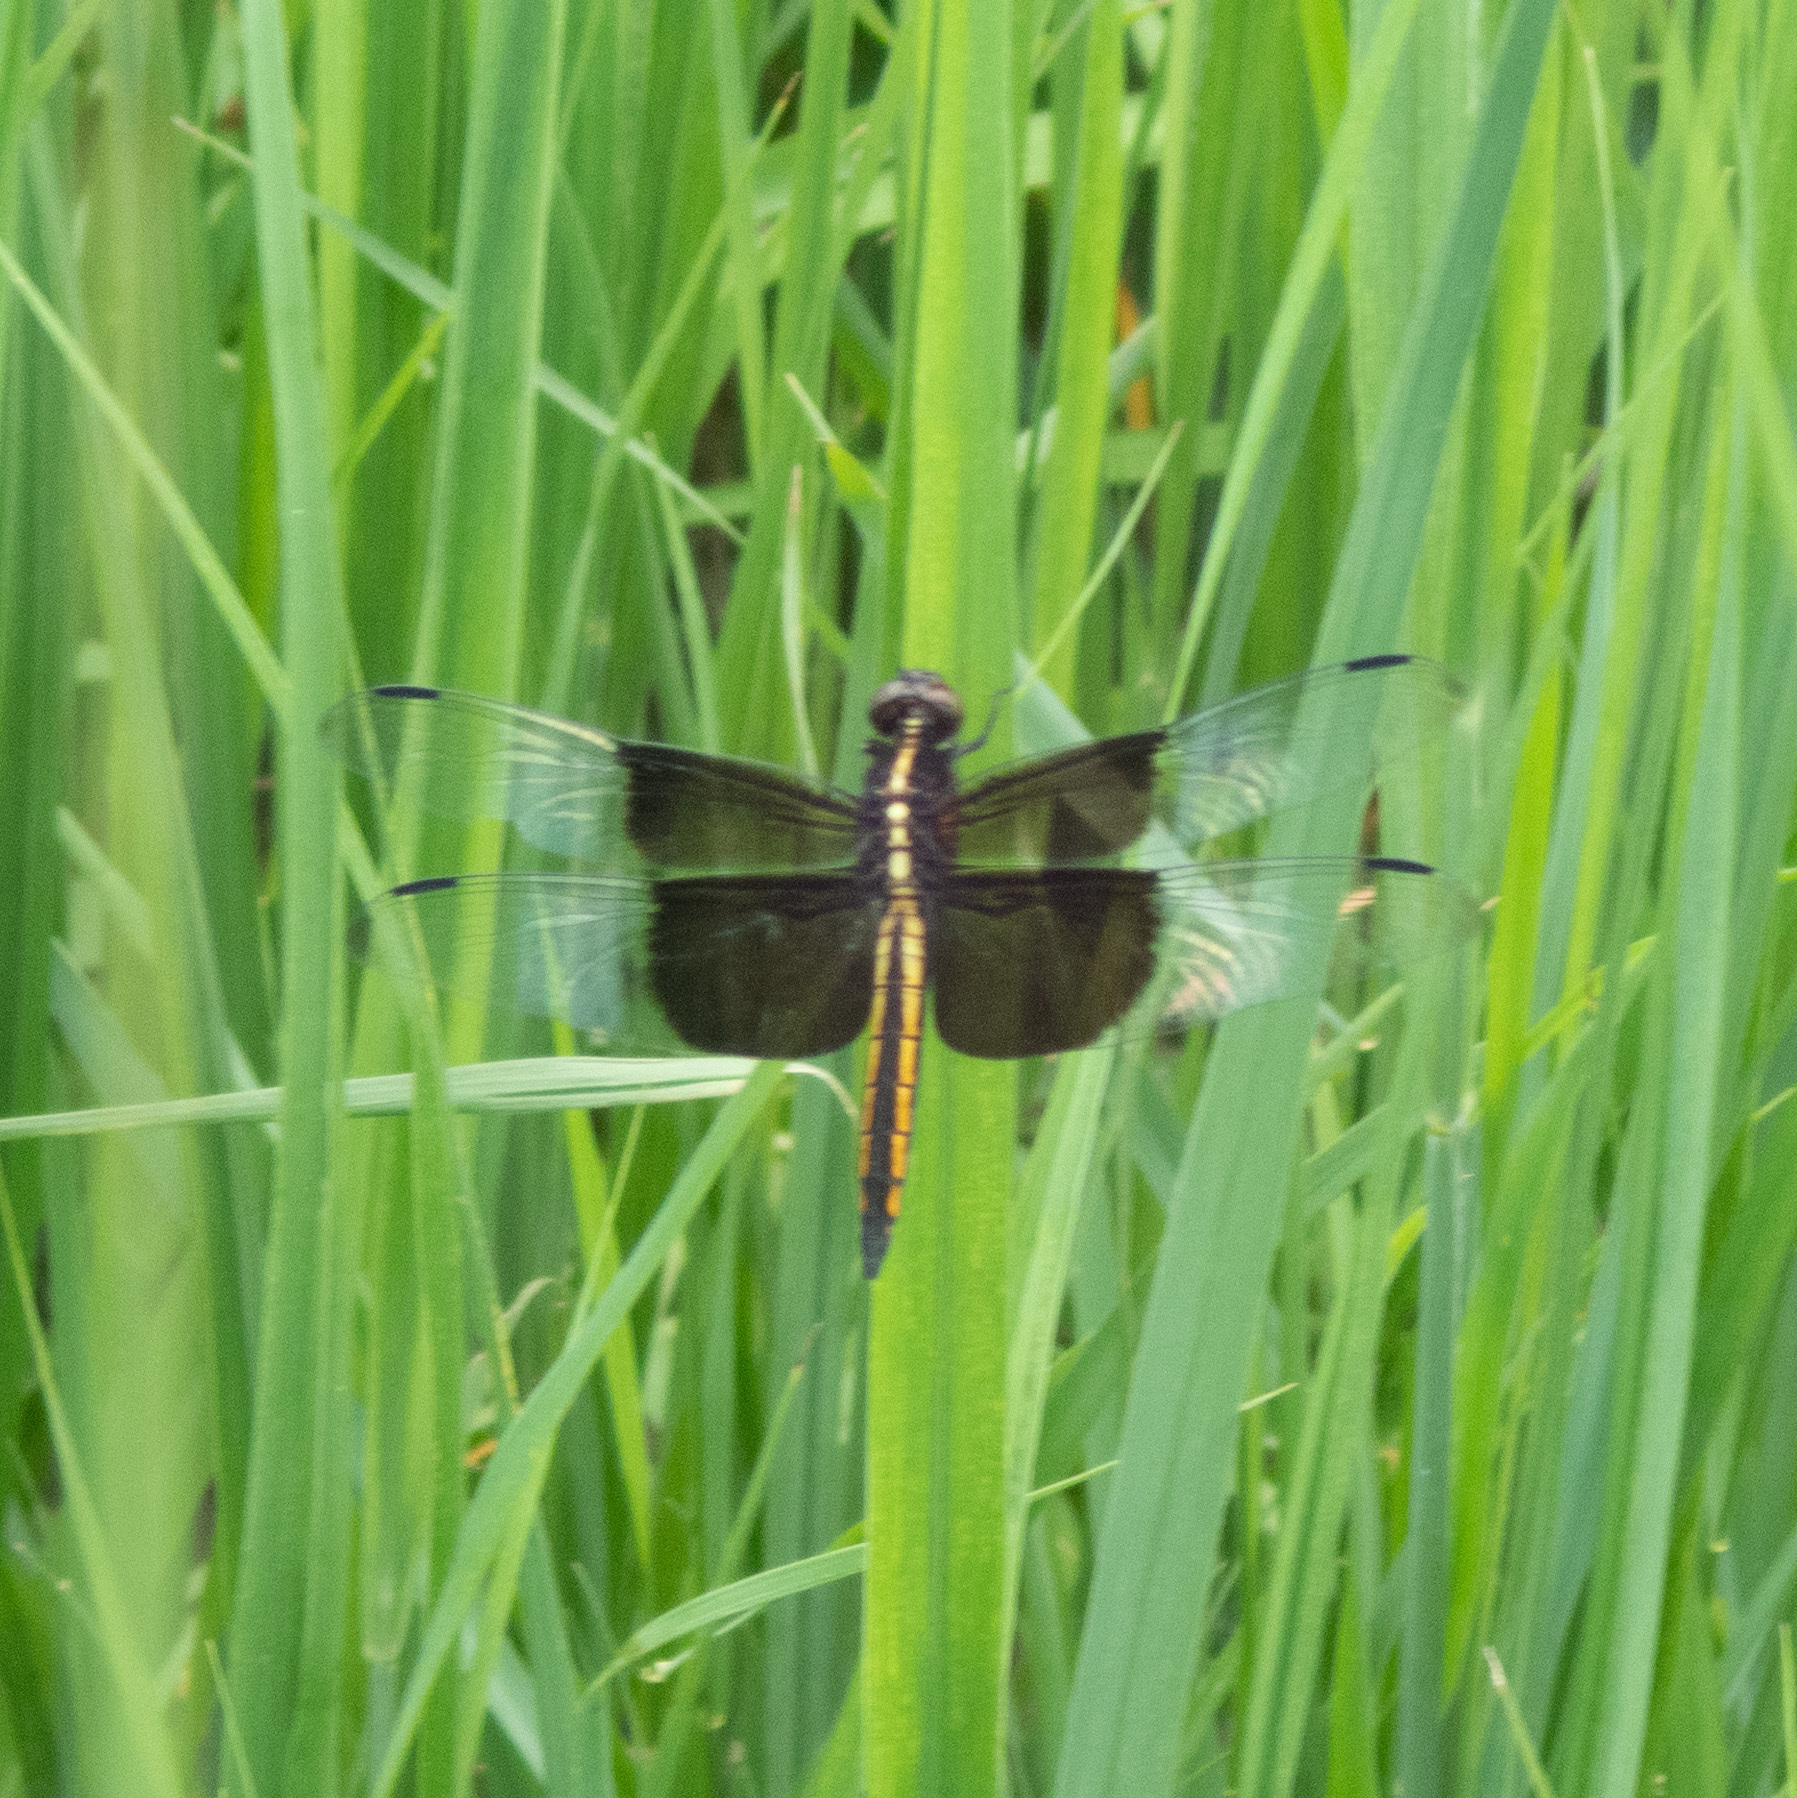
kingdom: Animalia
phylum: Arthropoda
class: Insecta
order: Odonata
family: Libellulidae
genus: Libellula
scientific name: Libellula luctuosa
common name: Widow skimmer
